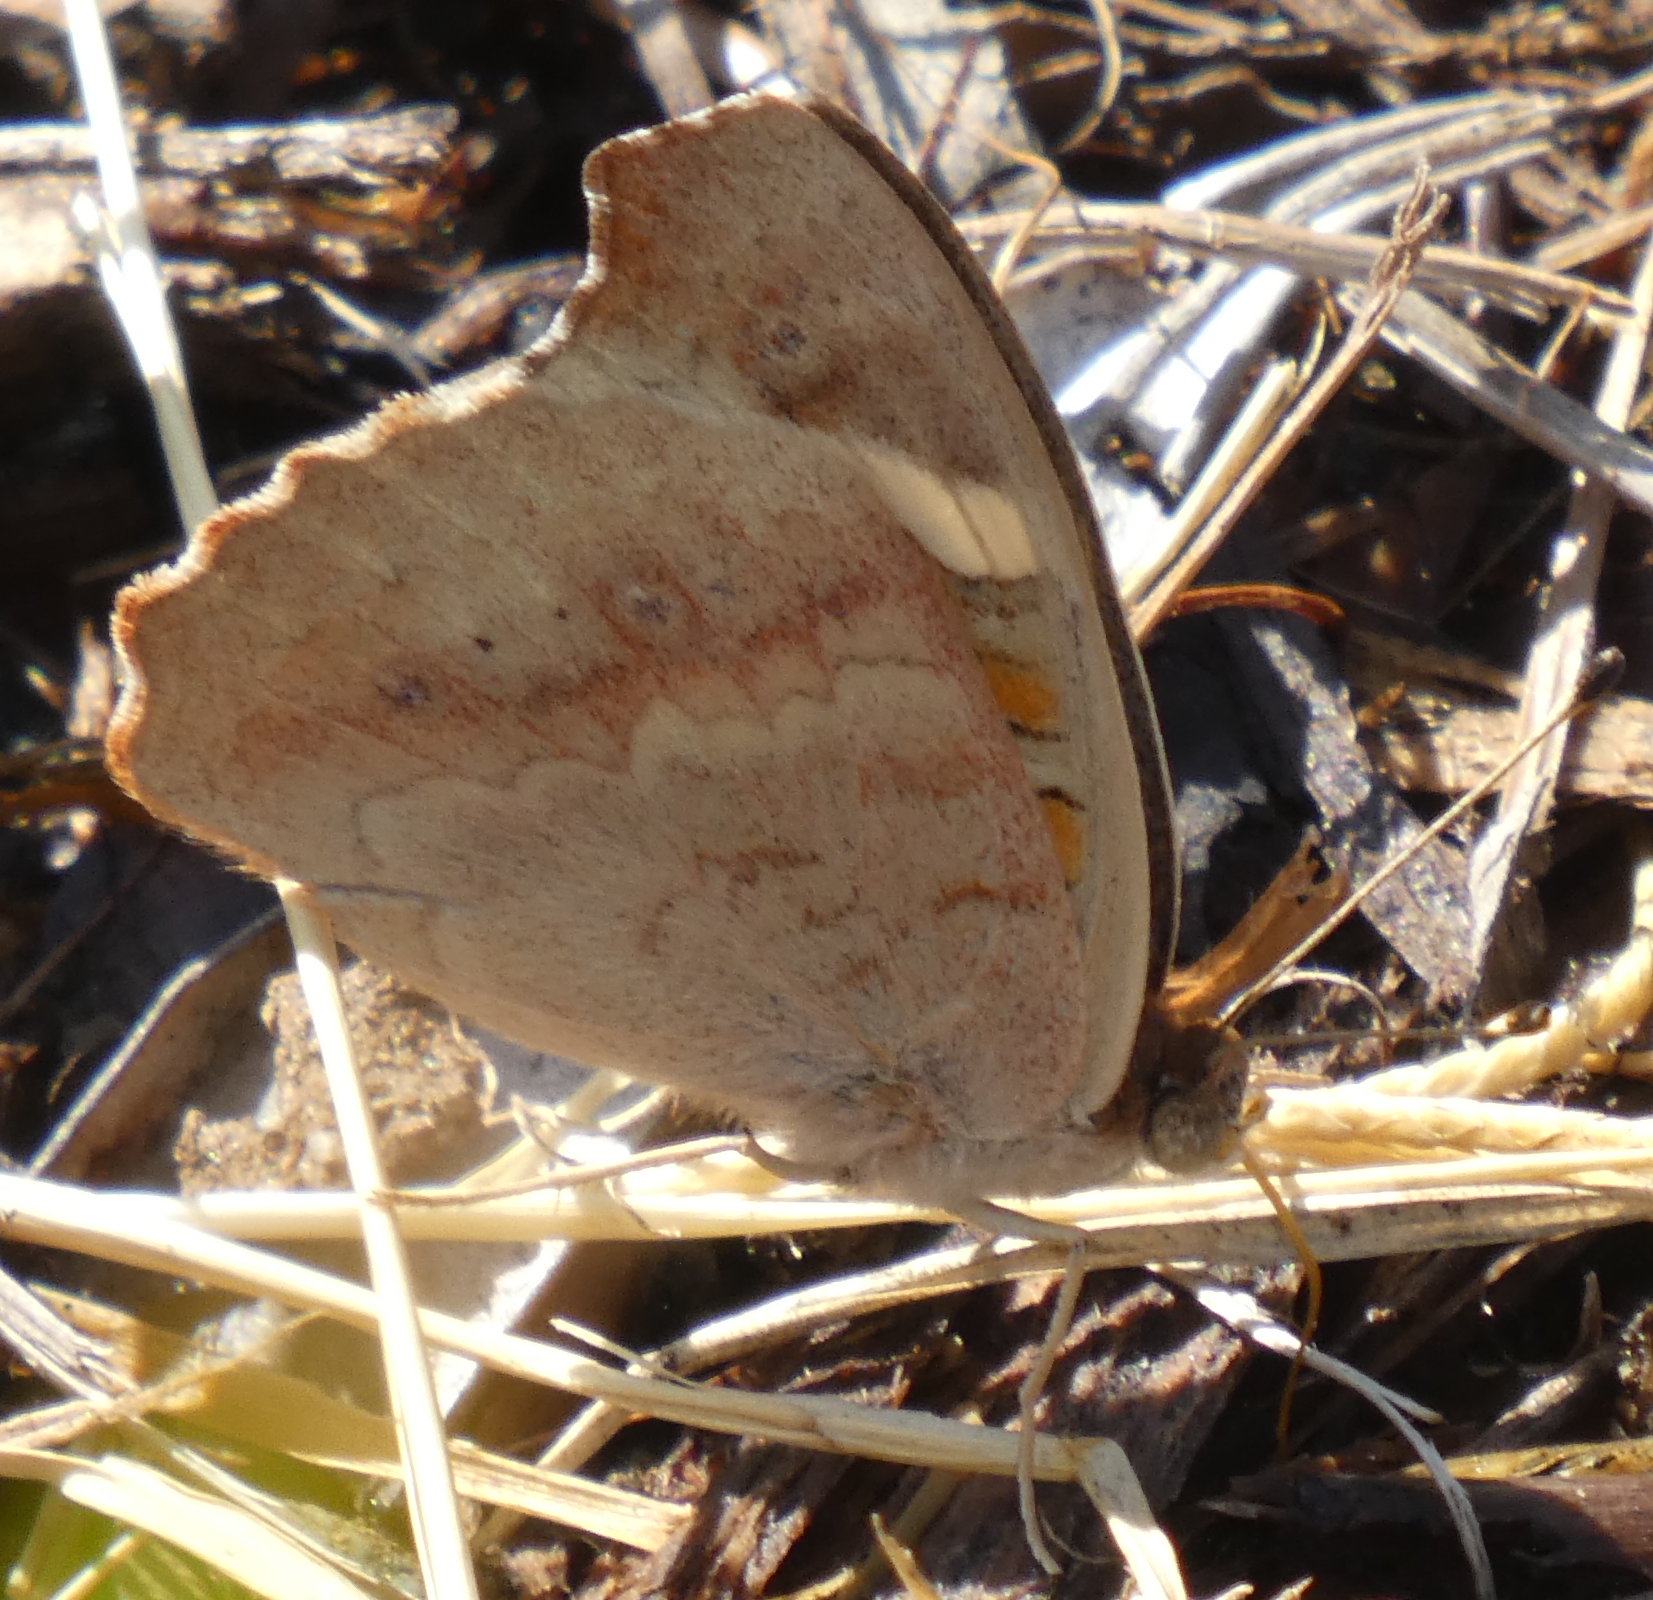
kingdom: Animalia
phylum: Arthropoda
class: Insecta
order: Lepidoptera
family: Nymphalidae
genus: Junonia
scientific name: Junonia grisea
